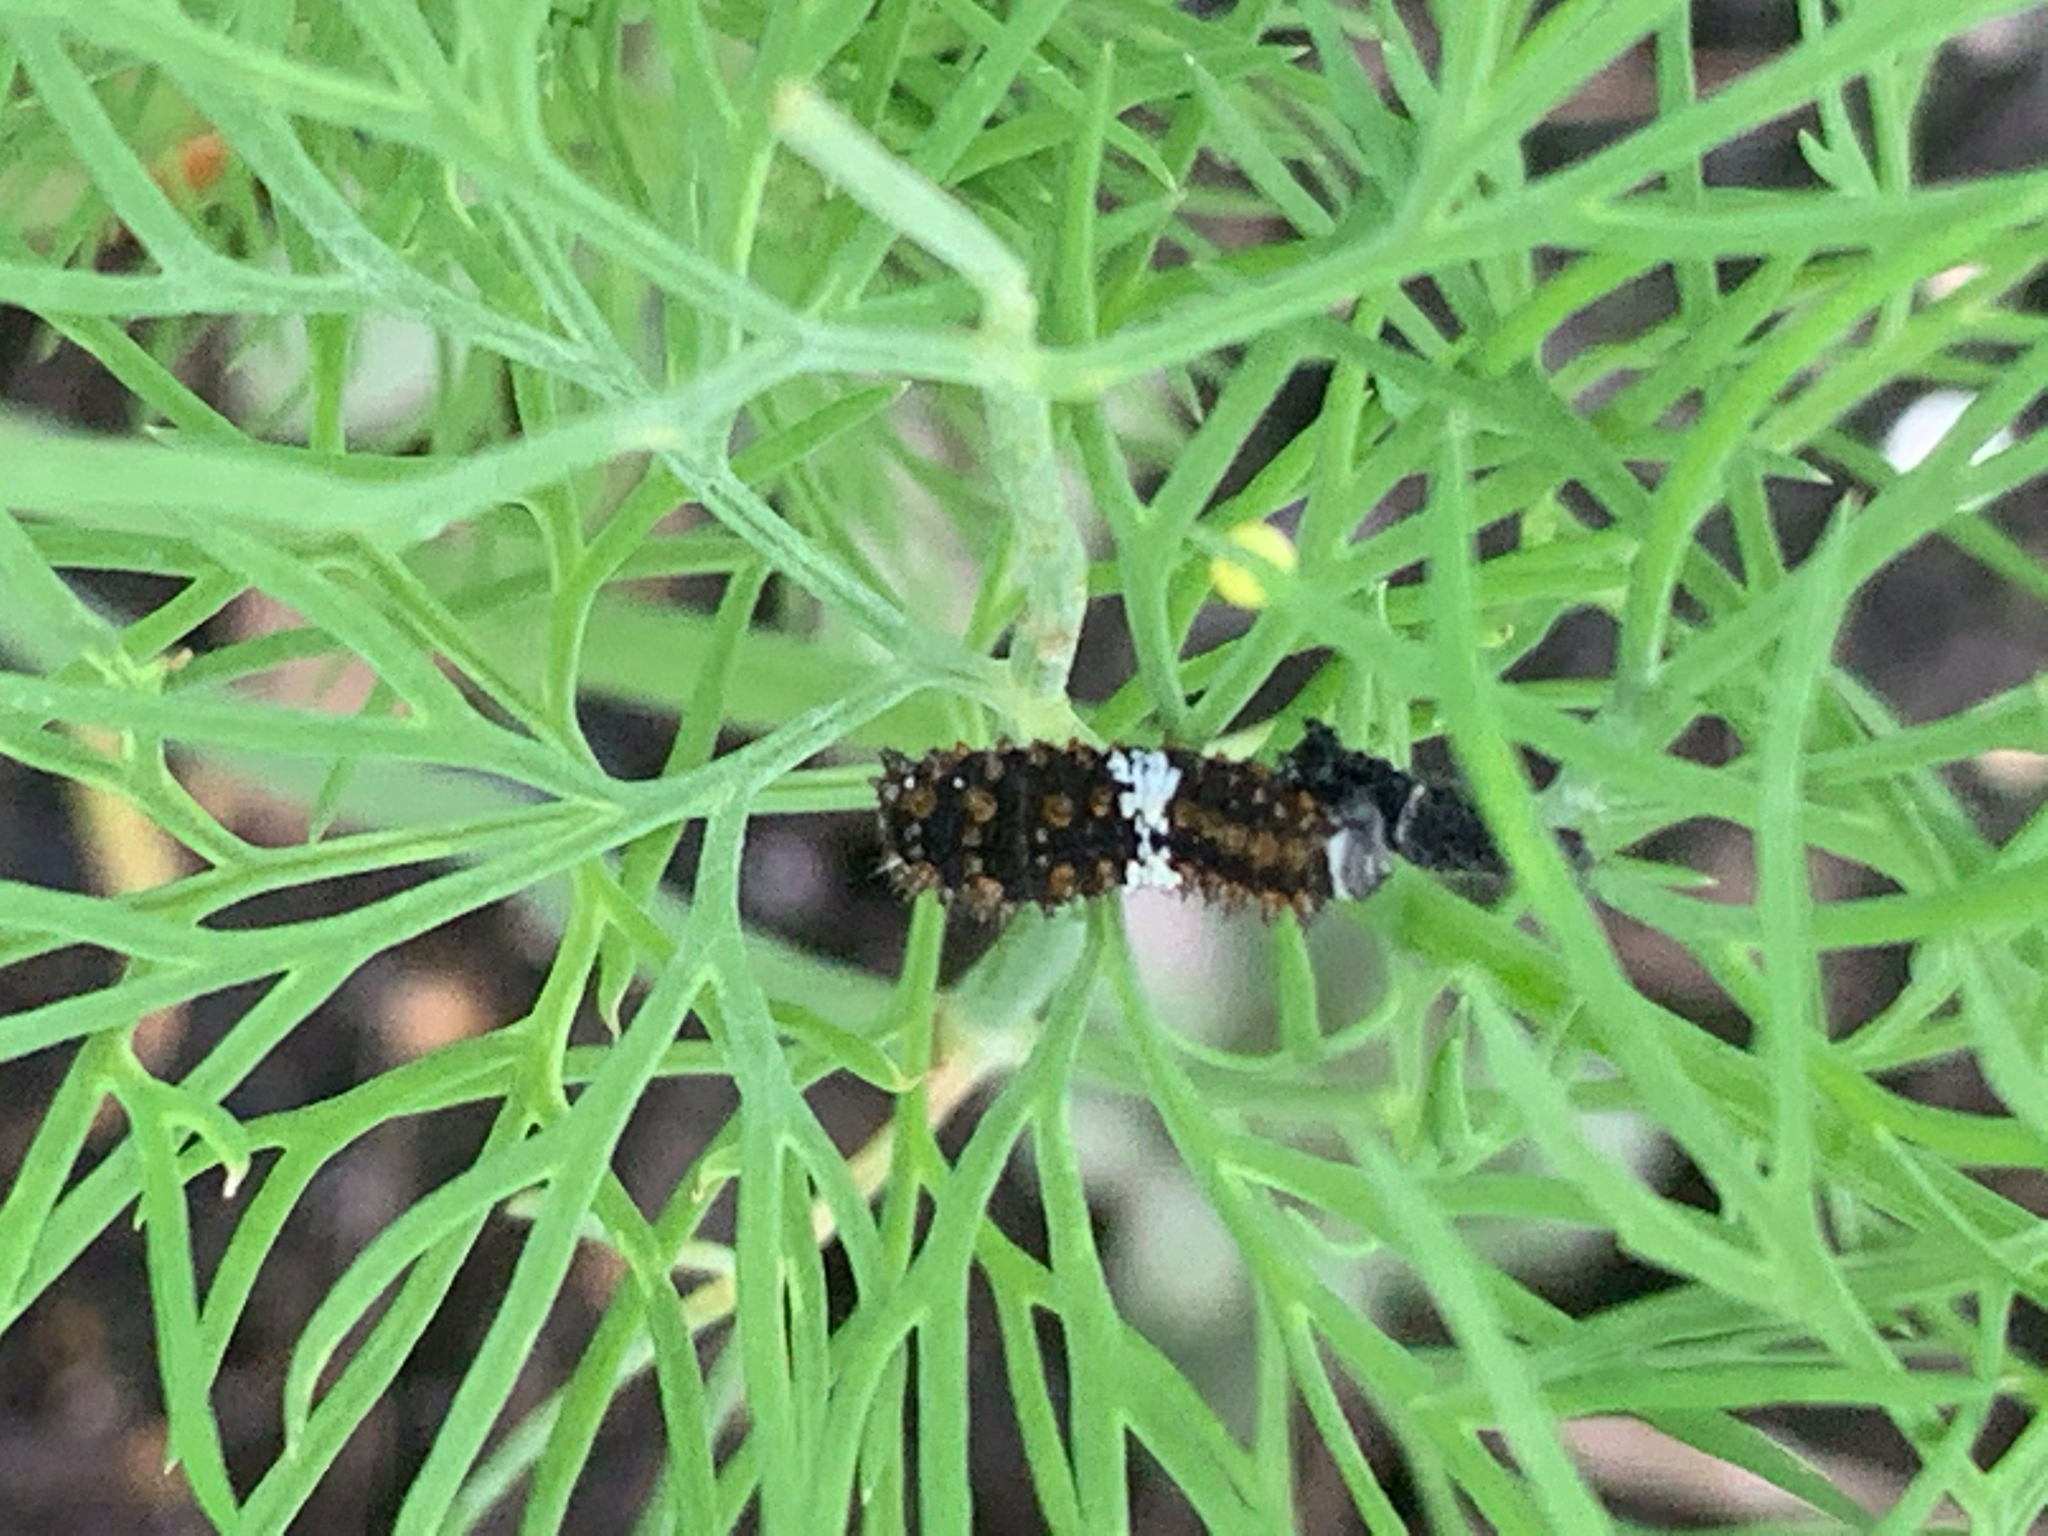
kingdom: Animalia
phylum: Arthropoda
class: Insecta
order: Lepidoptera
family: Papilionidae
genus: Papilio
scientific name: Papilio polyxenes
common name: Black swallowtail
